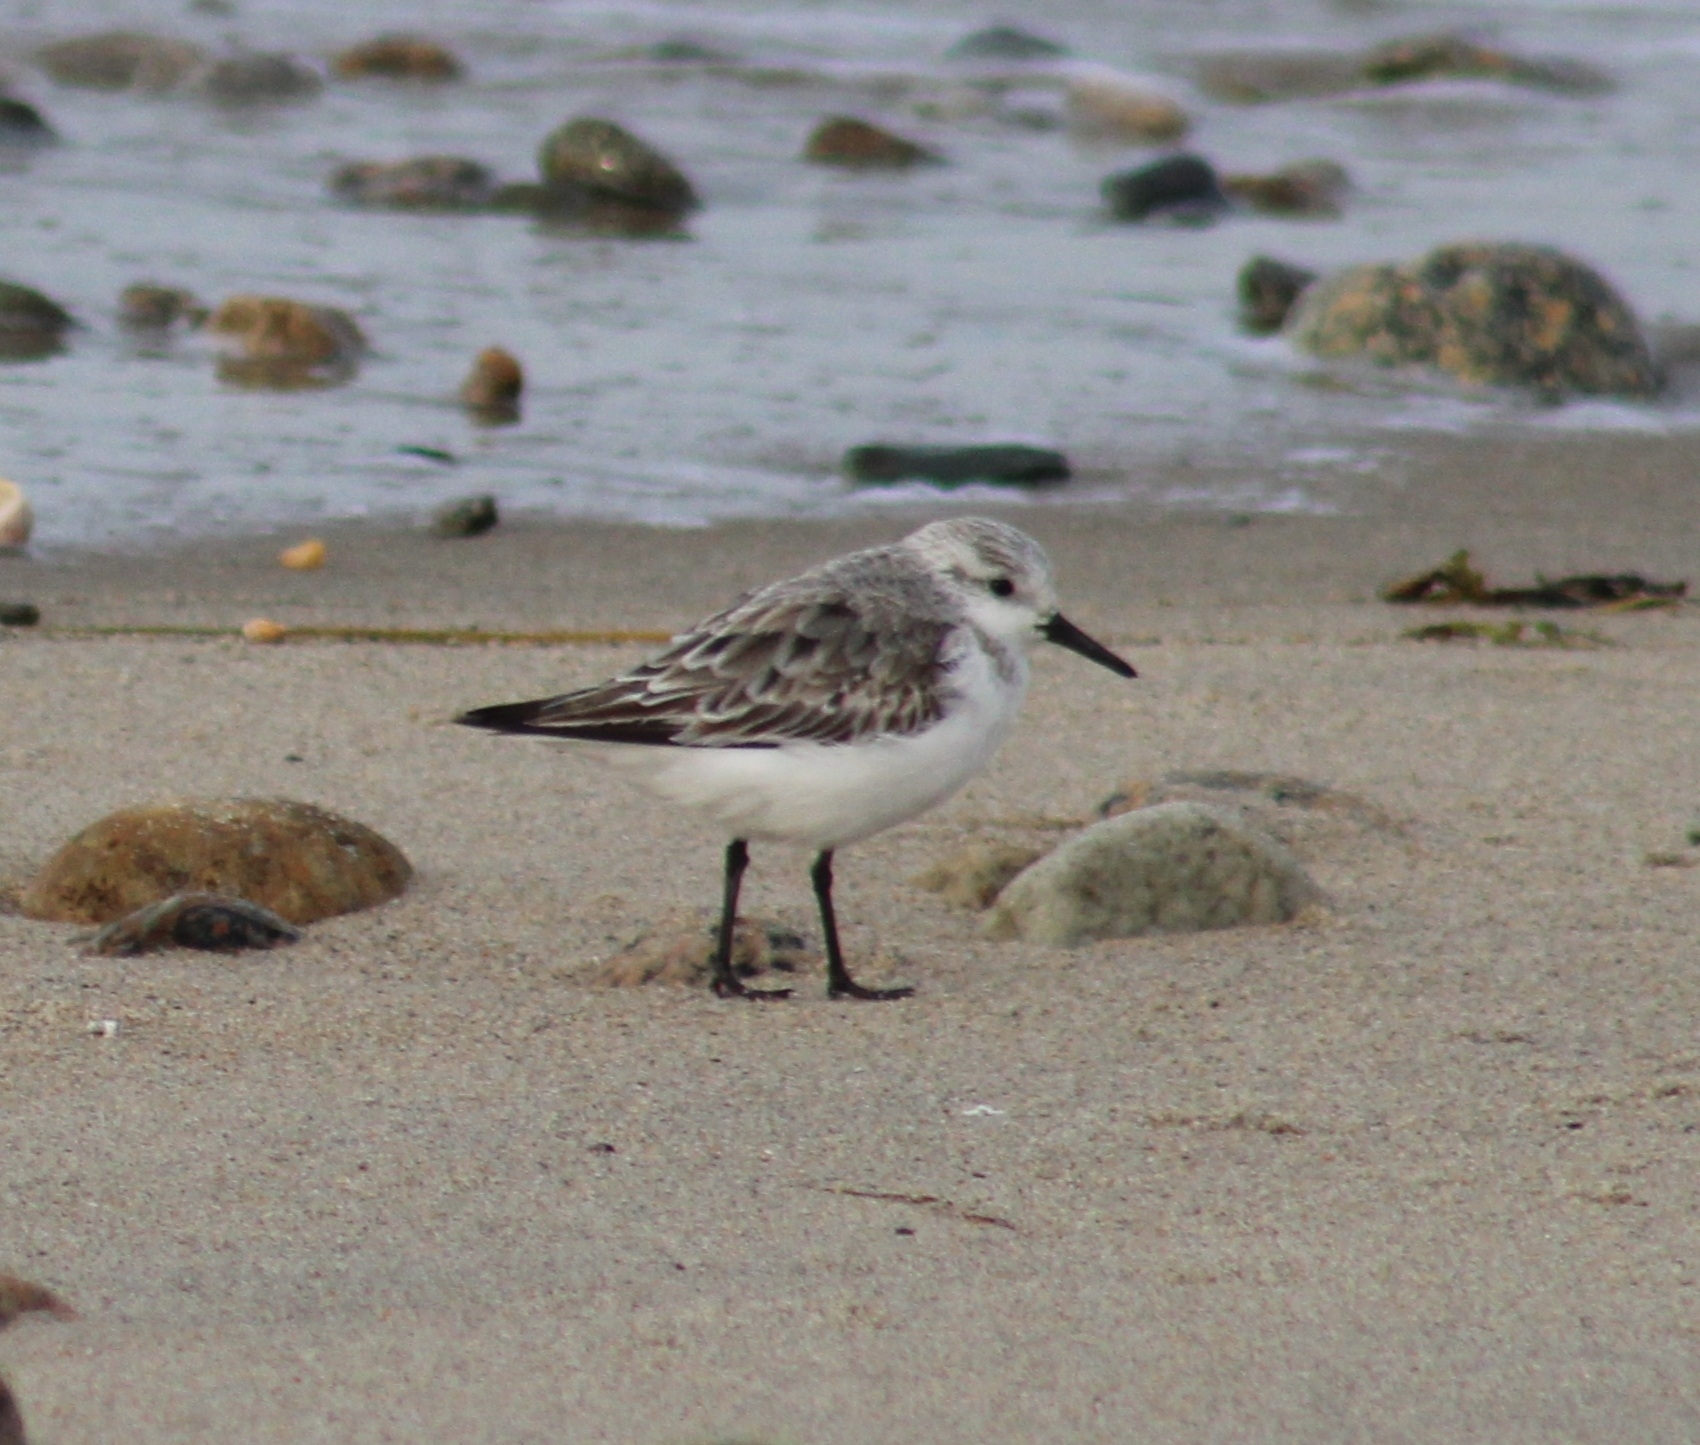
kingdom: Animalia
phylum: Chordata
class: Aves
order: Charadriiformes
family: Scolopacidae
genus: Calidris
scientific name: Calidris alba
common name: Sanderling
